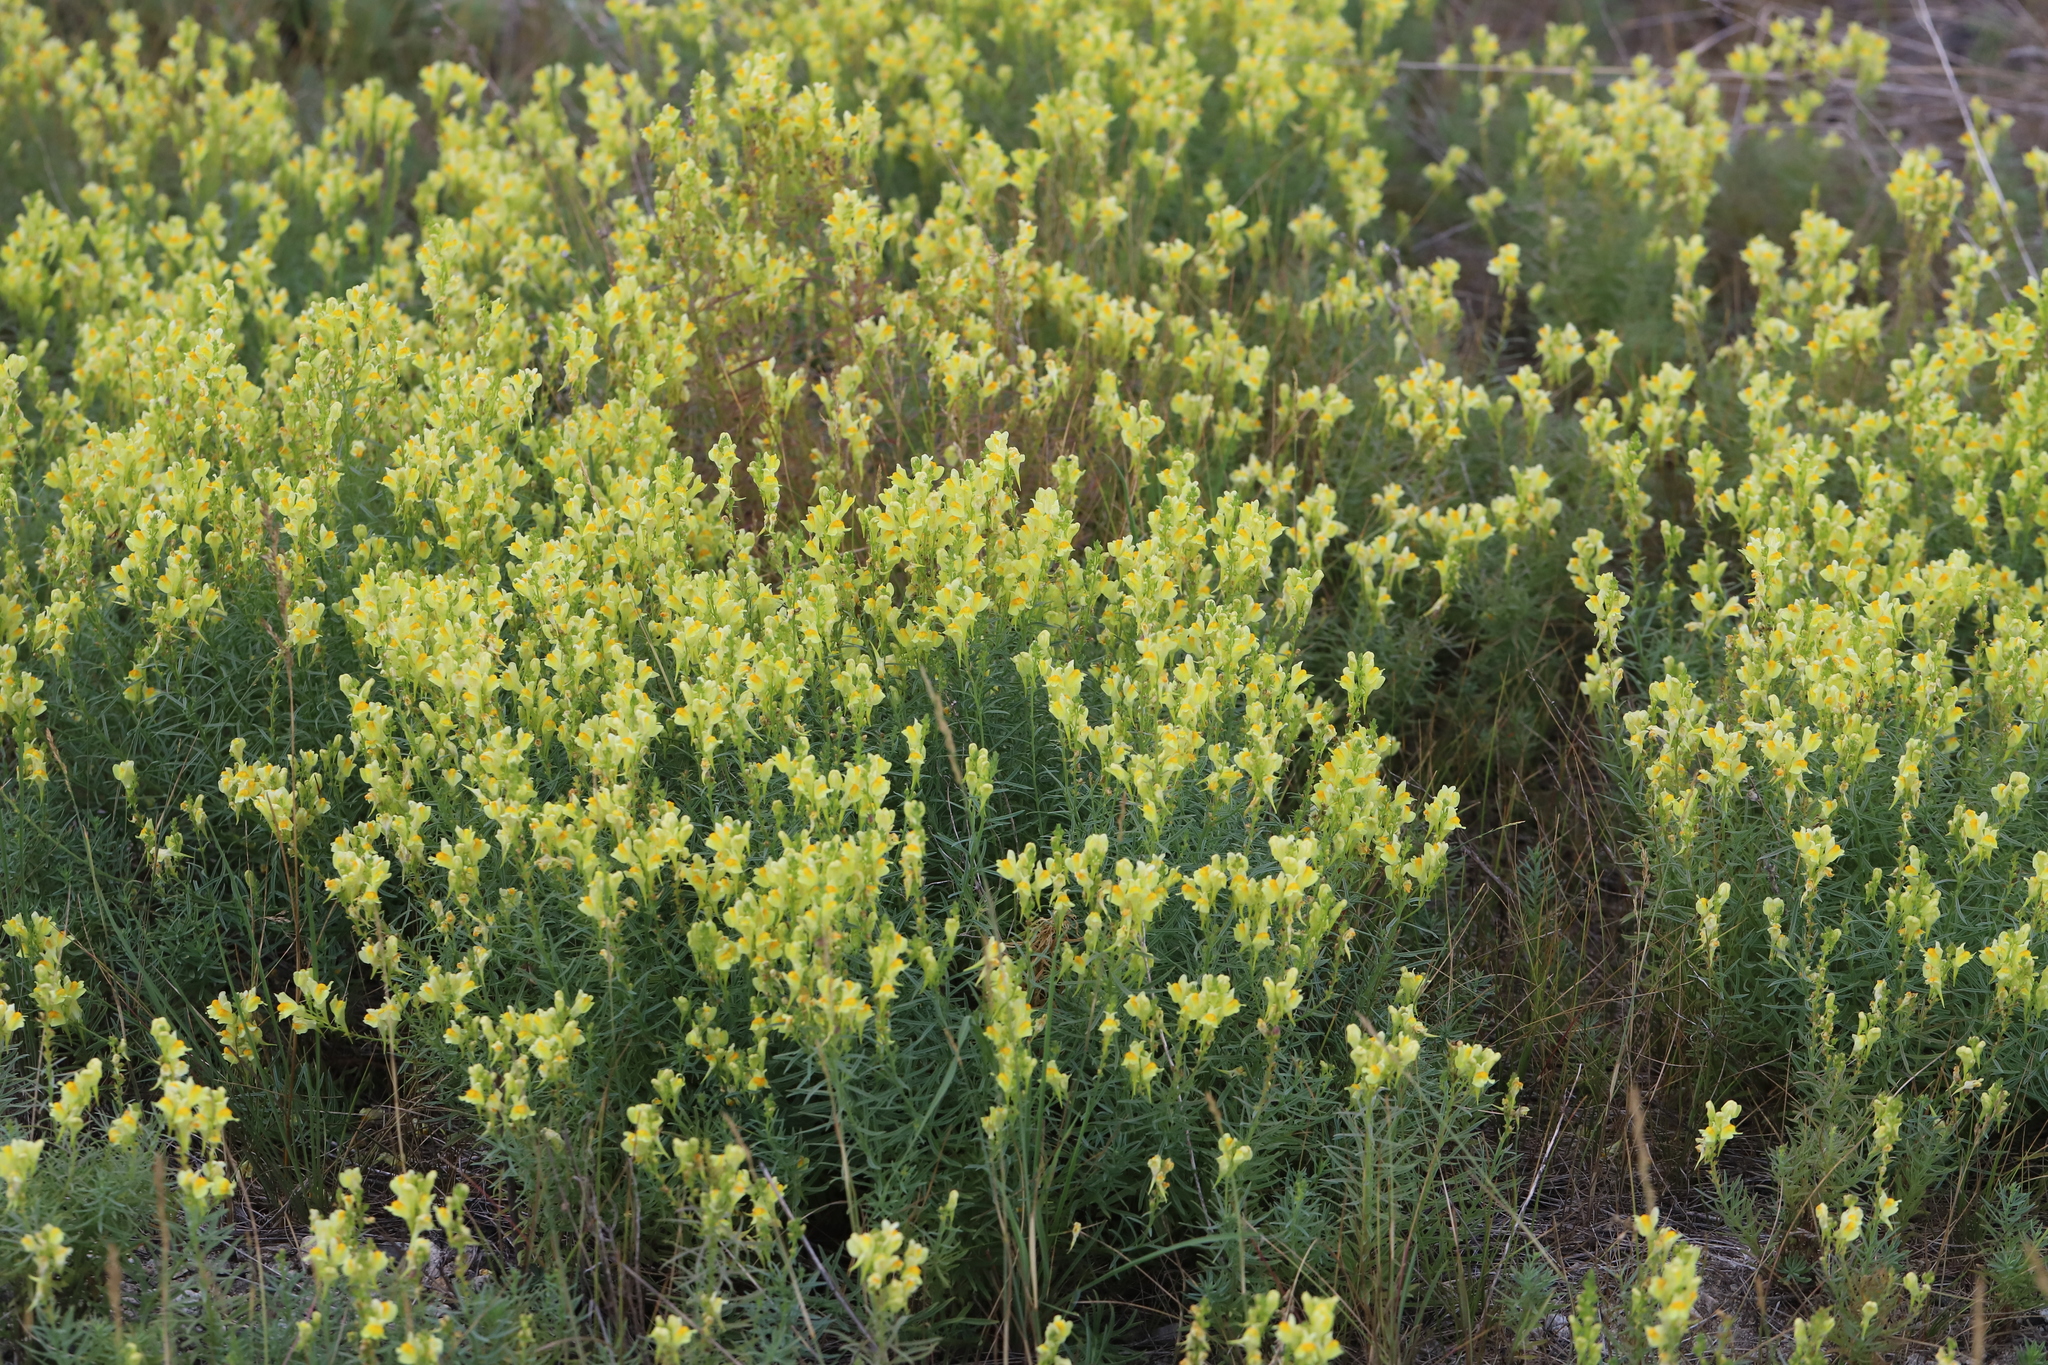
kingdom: Plantae
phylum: Tracheophyta
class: Magnoliopsida
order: Lamiales
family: Plantaginaceae
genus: Linaria
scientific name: Linaria vulgaris
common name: Butter and eggs
